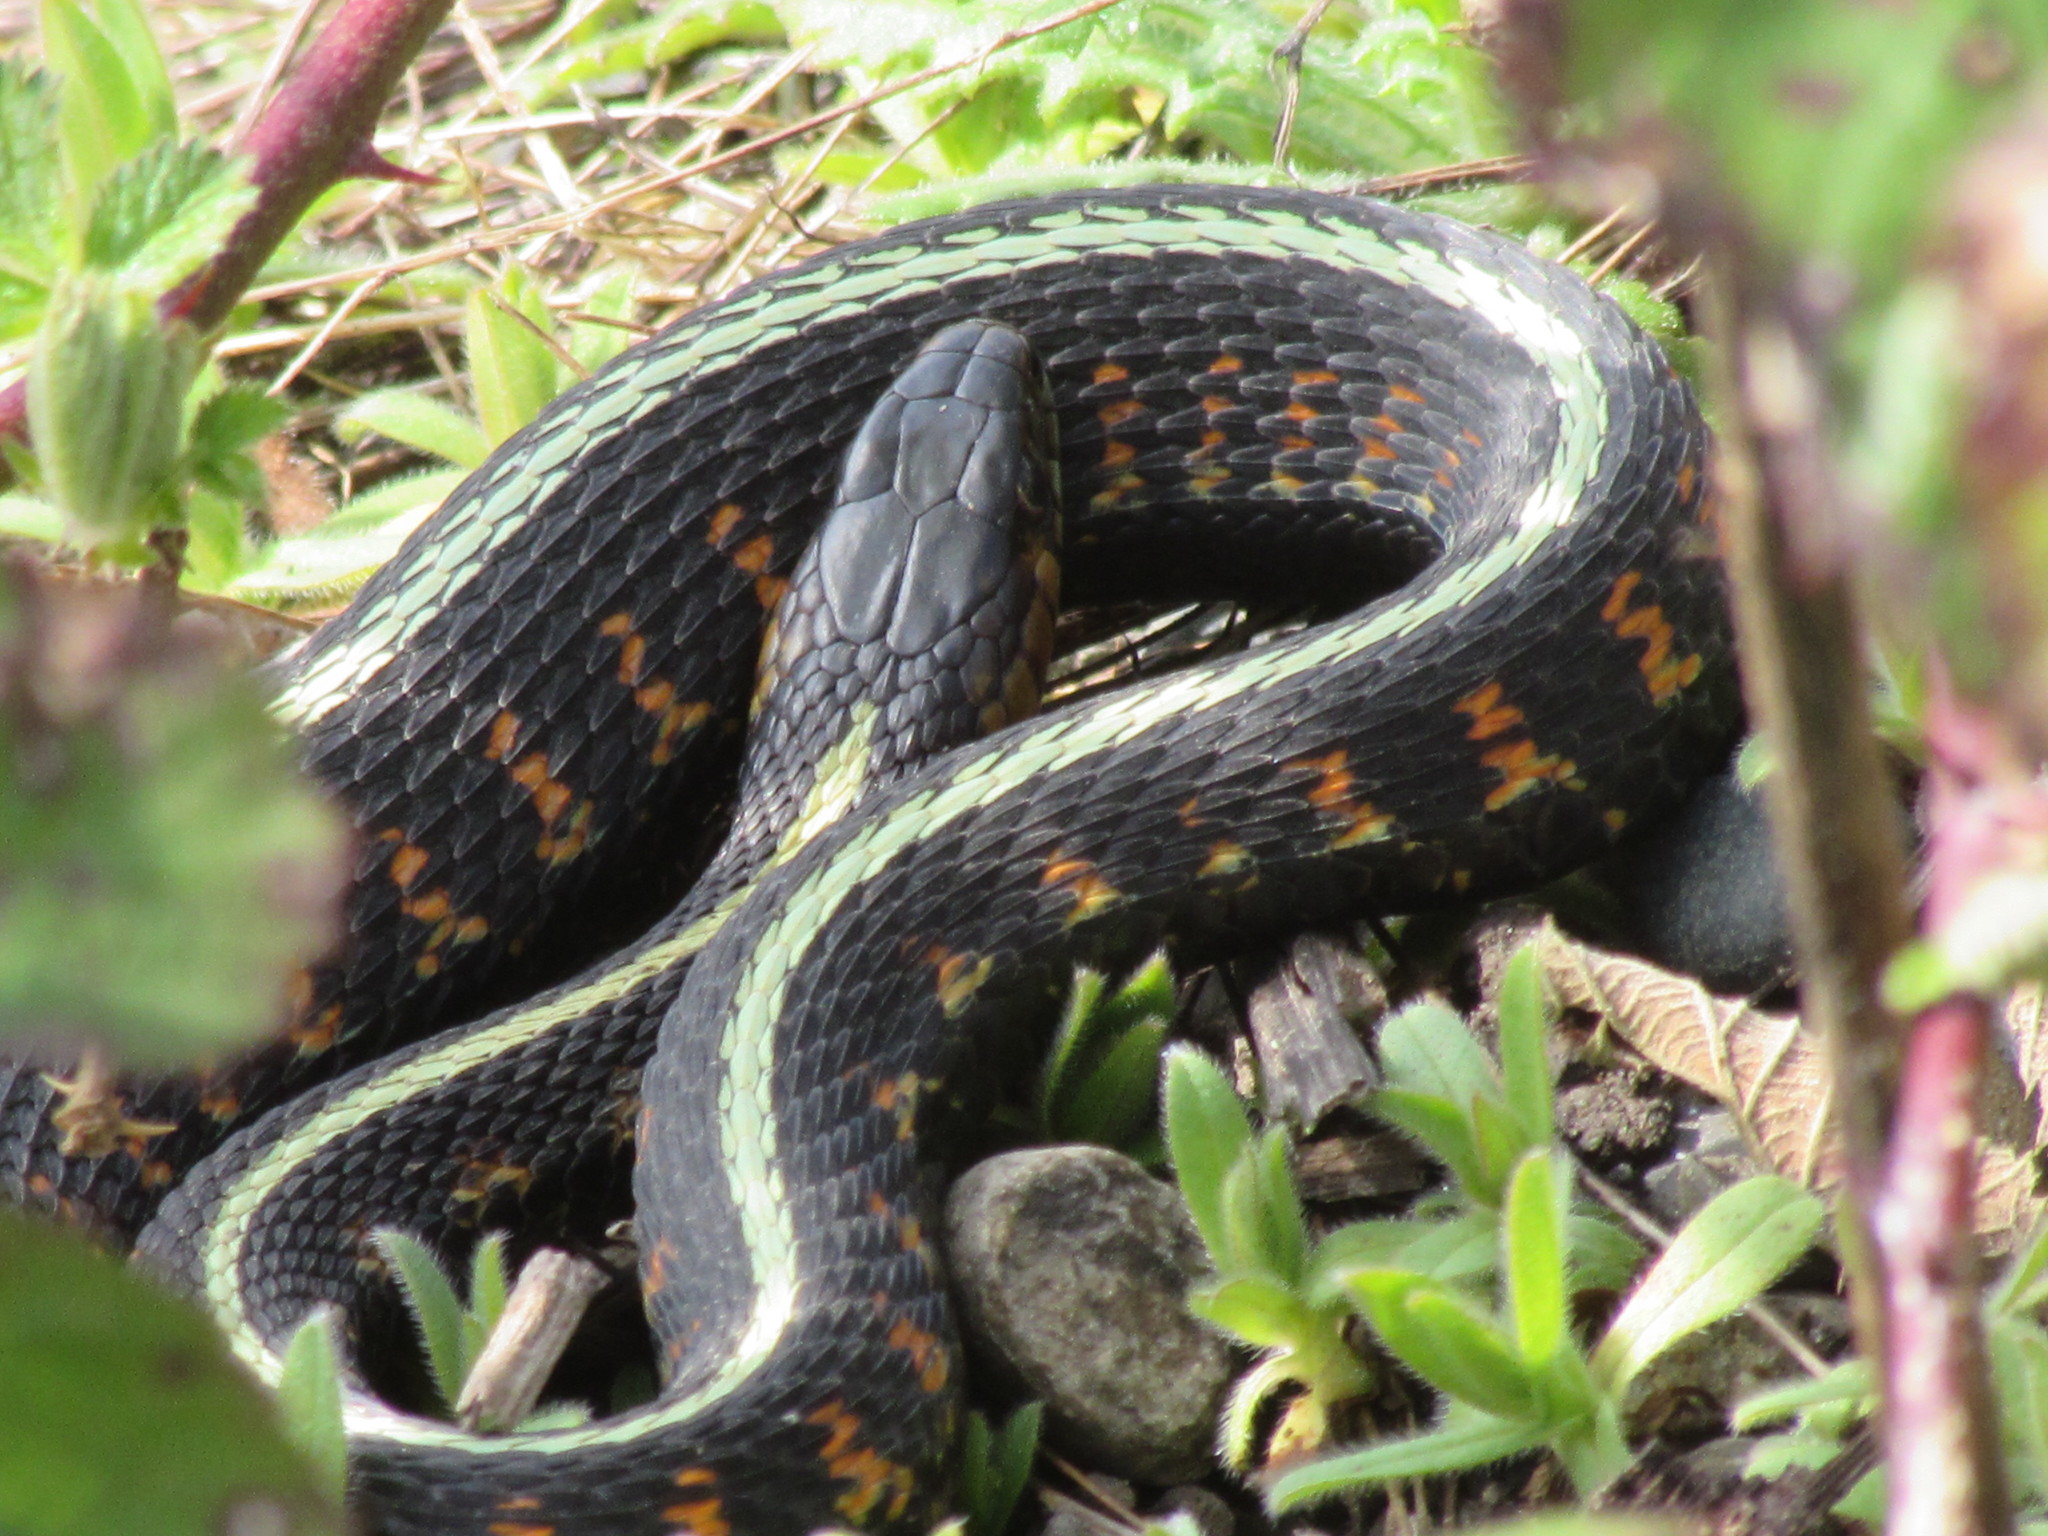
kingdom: Animalia
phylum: Chordata
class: Squamata
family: Colubridae
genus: Thamnophis
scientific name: Thamnophis sirtalis
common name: Common garter snake
